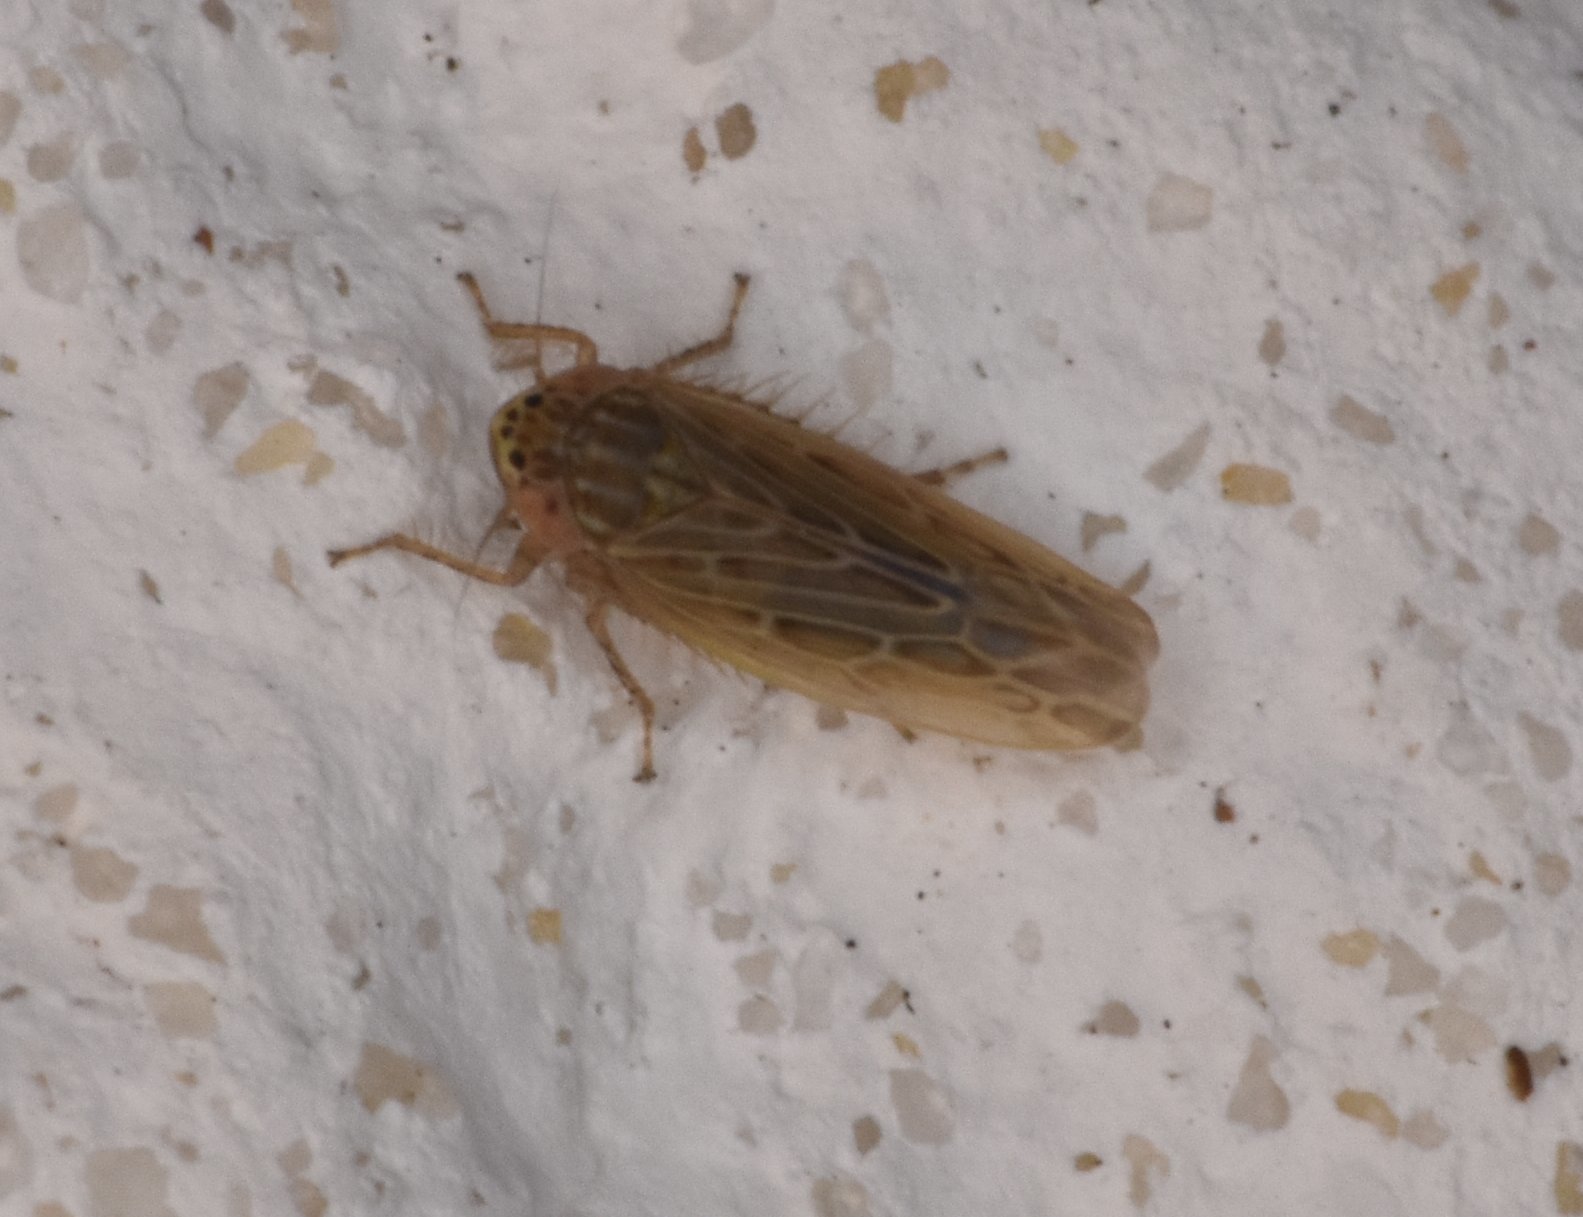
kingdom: Animalia
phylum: Arthropoda
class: Insecta
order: Hemiptera
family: Cicadellidae
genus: Graminella
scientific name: Graminella sonora
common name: Lesser lawn leafhopper
